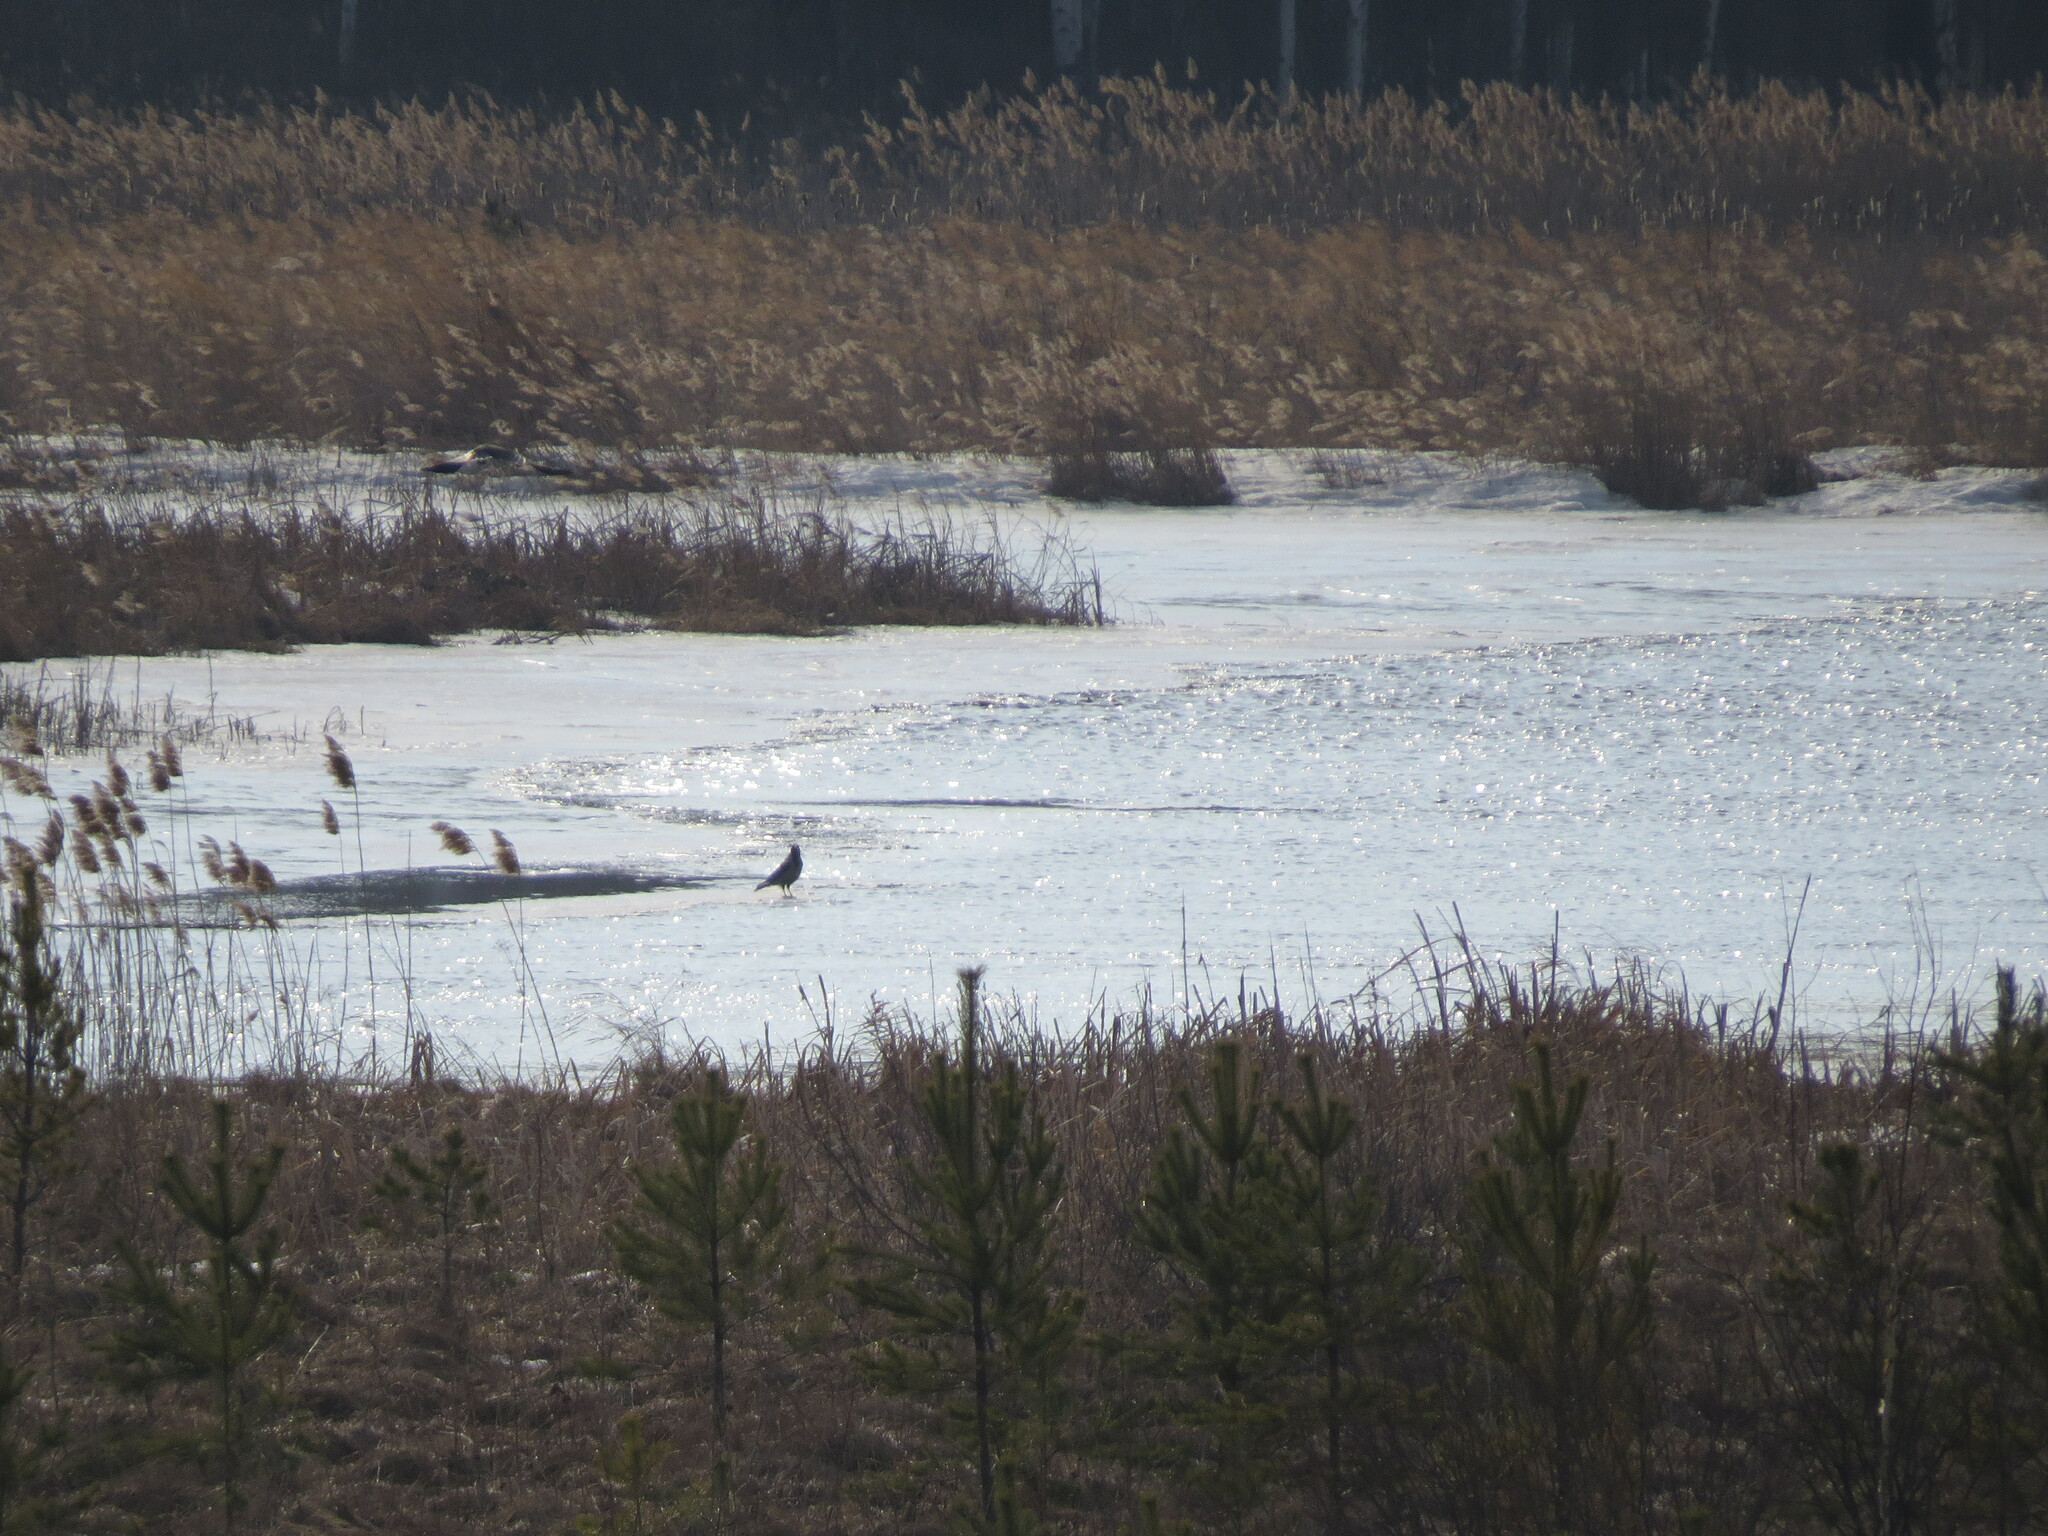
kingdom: Animalia
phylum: Chordata
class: Aves
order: Passeriformes
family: Corvidae
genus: Corvus
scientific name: Corvus cornix
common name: Hooded crow
